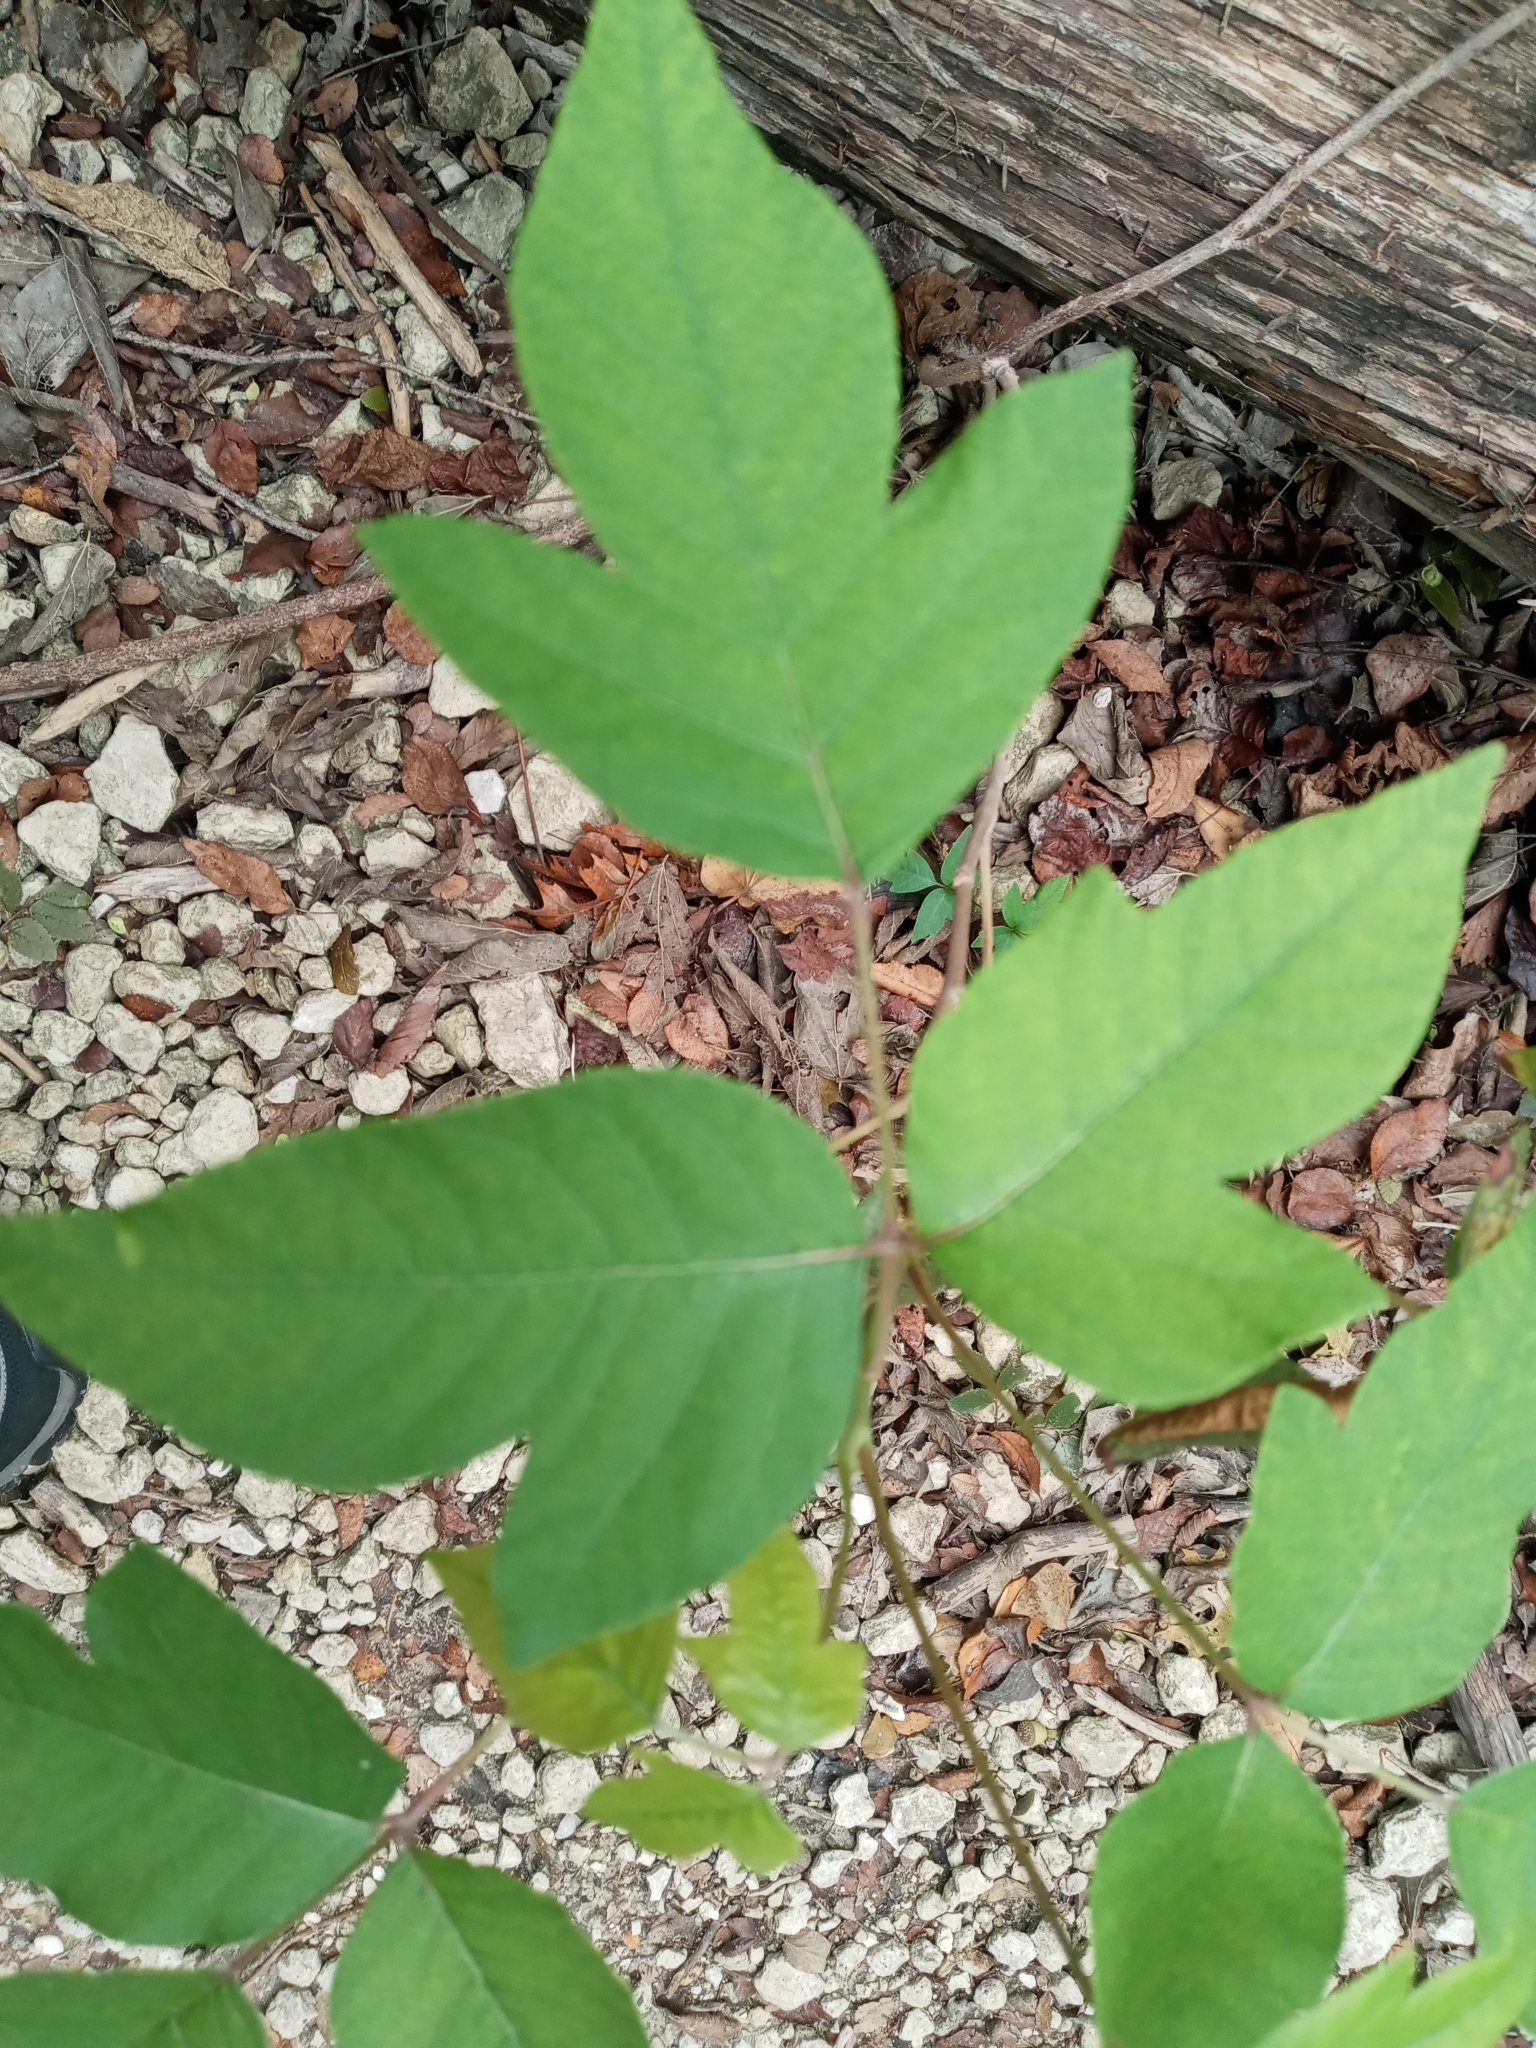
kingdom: Plantae
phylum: Tracheophyta
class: Magnoliopsida
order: Sapindales
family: Anacardiaceae
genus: Toxicodendron
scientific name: Toxicodendron radicans
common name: Poison ivy
